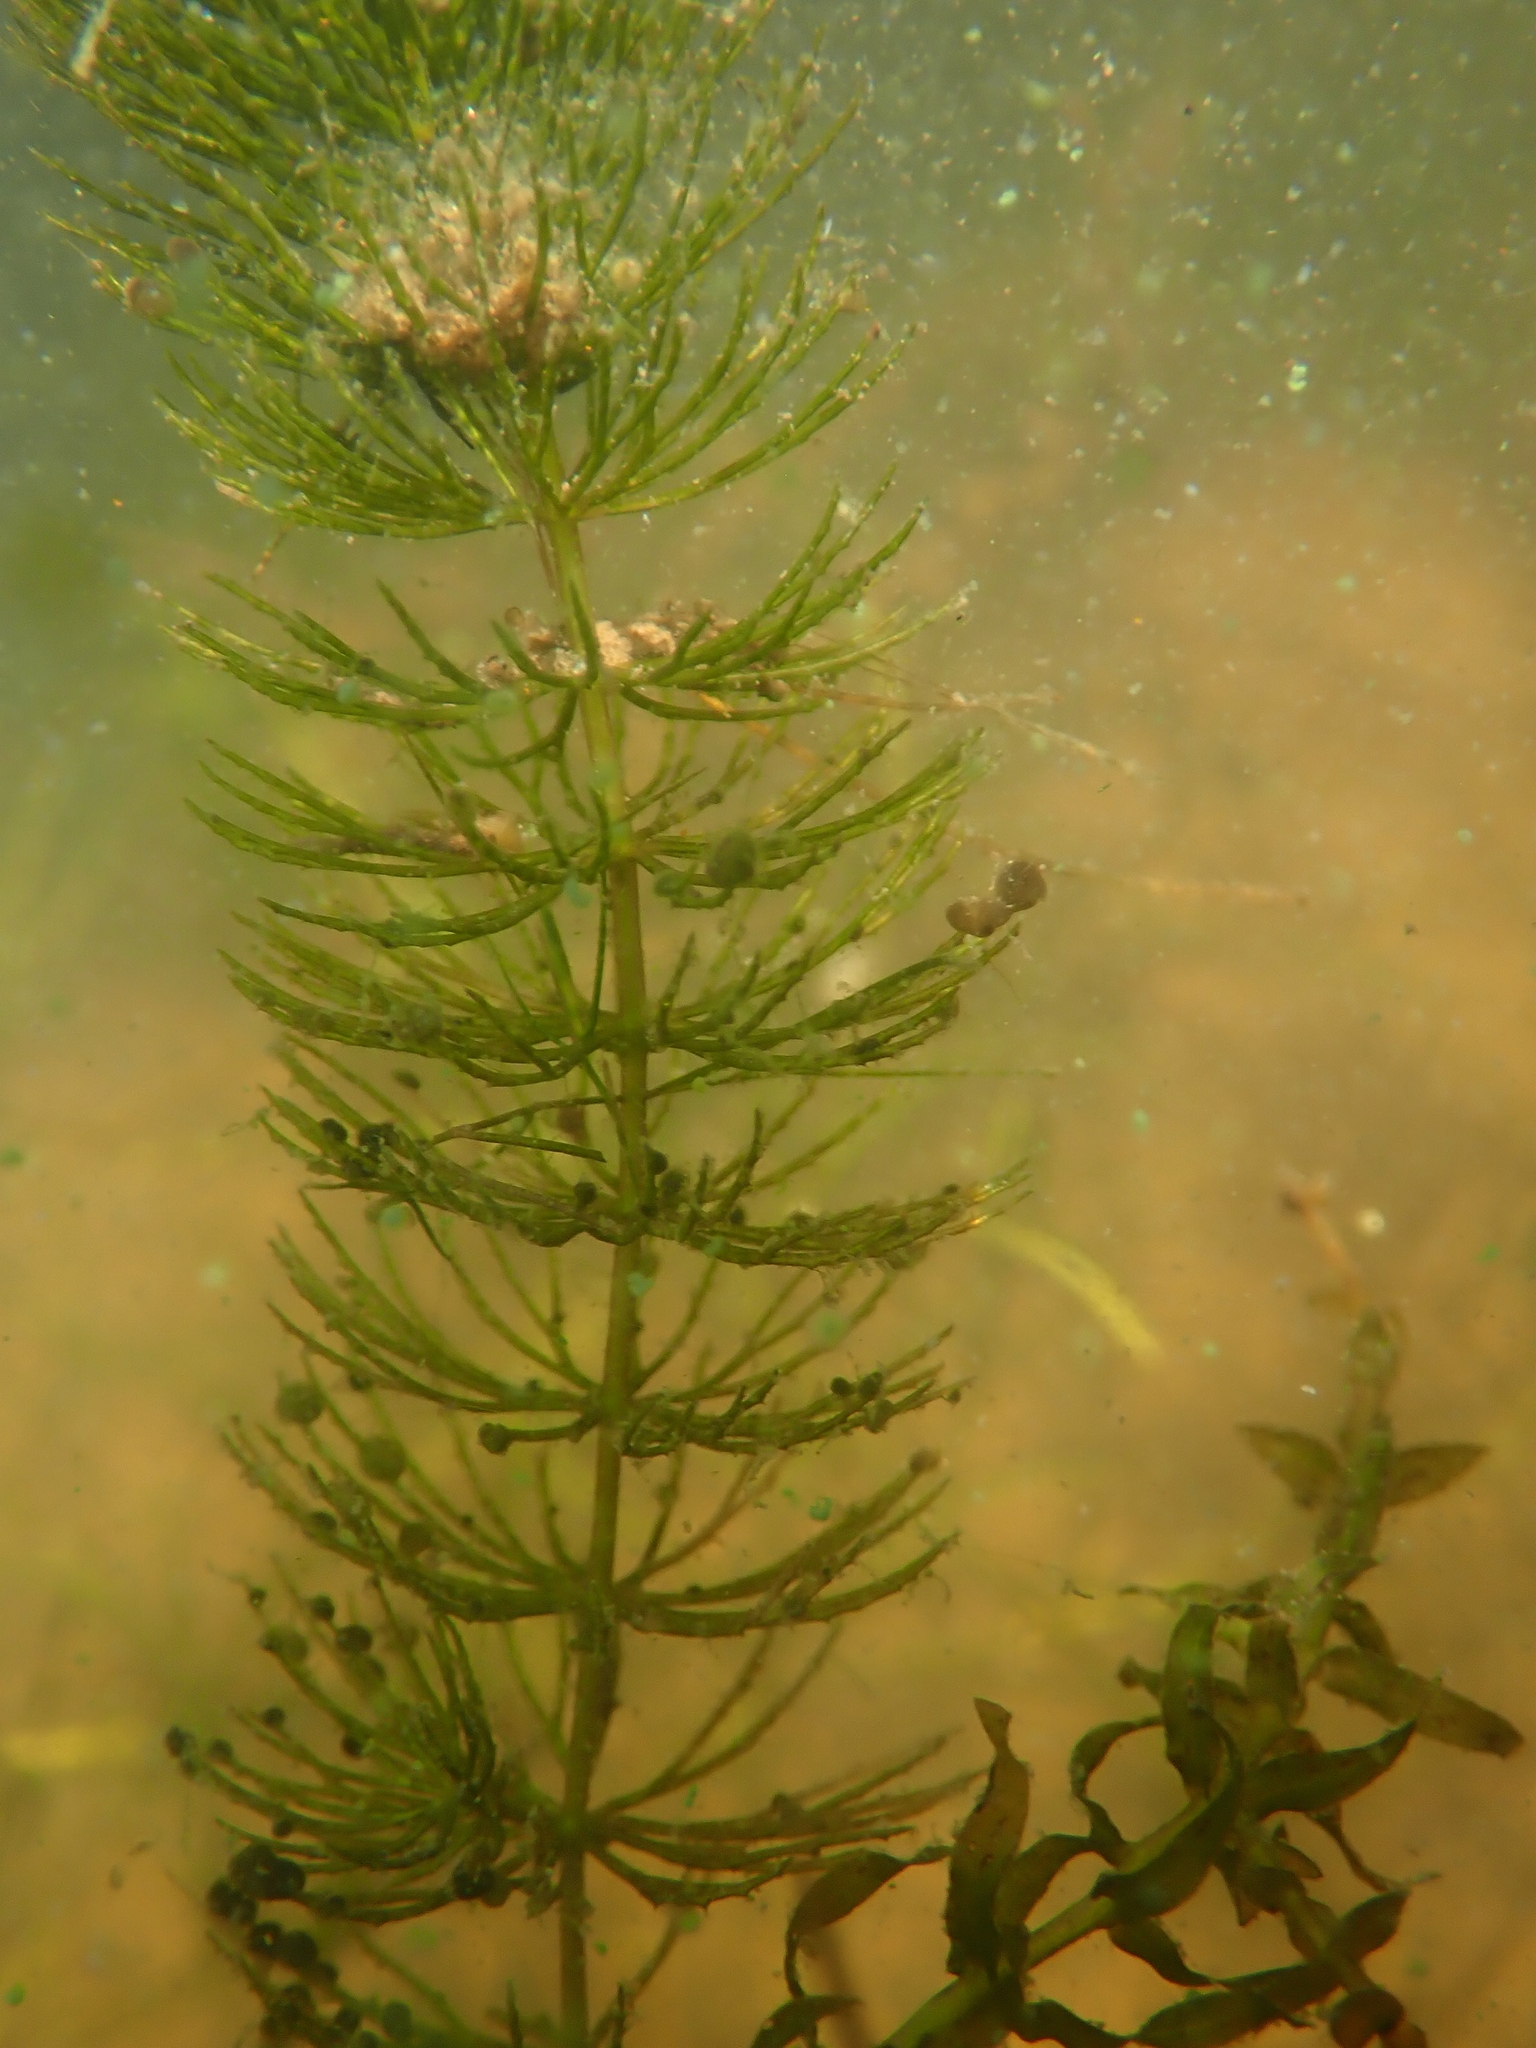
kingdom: Plantae
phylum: Tracheophyta
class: Magnoliopsida
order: Ceratophyllales
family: Ceratophyllaceae
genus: Ceratophyllum
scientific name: Ceratophyllum demersum
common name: Rigid hornwort
